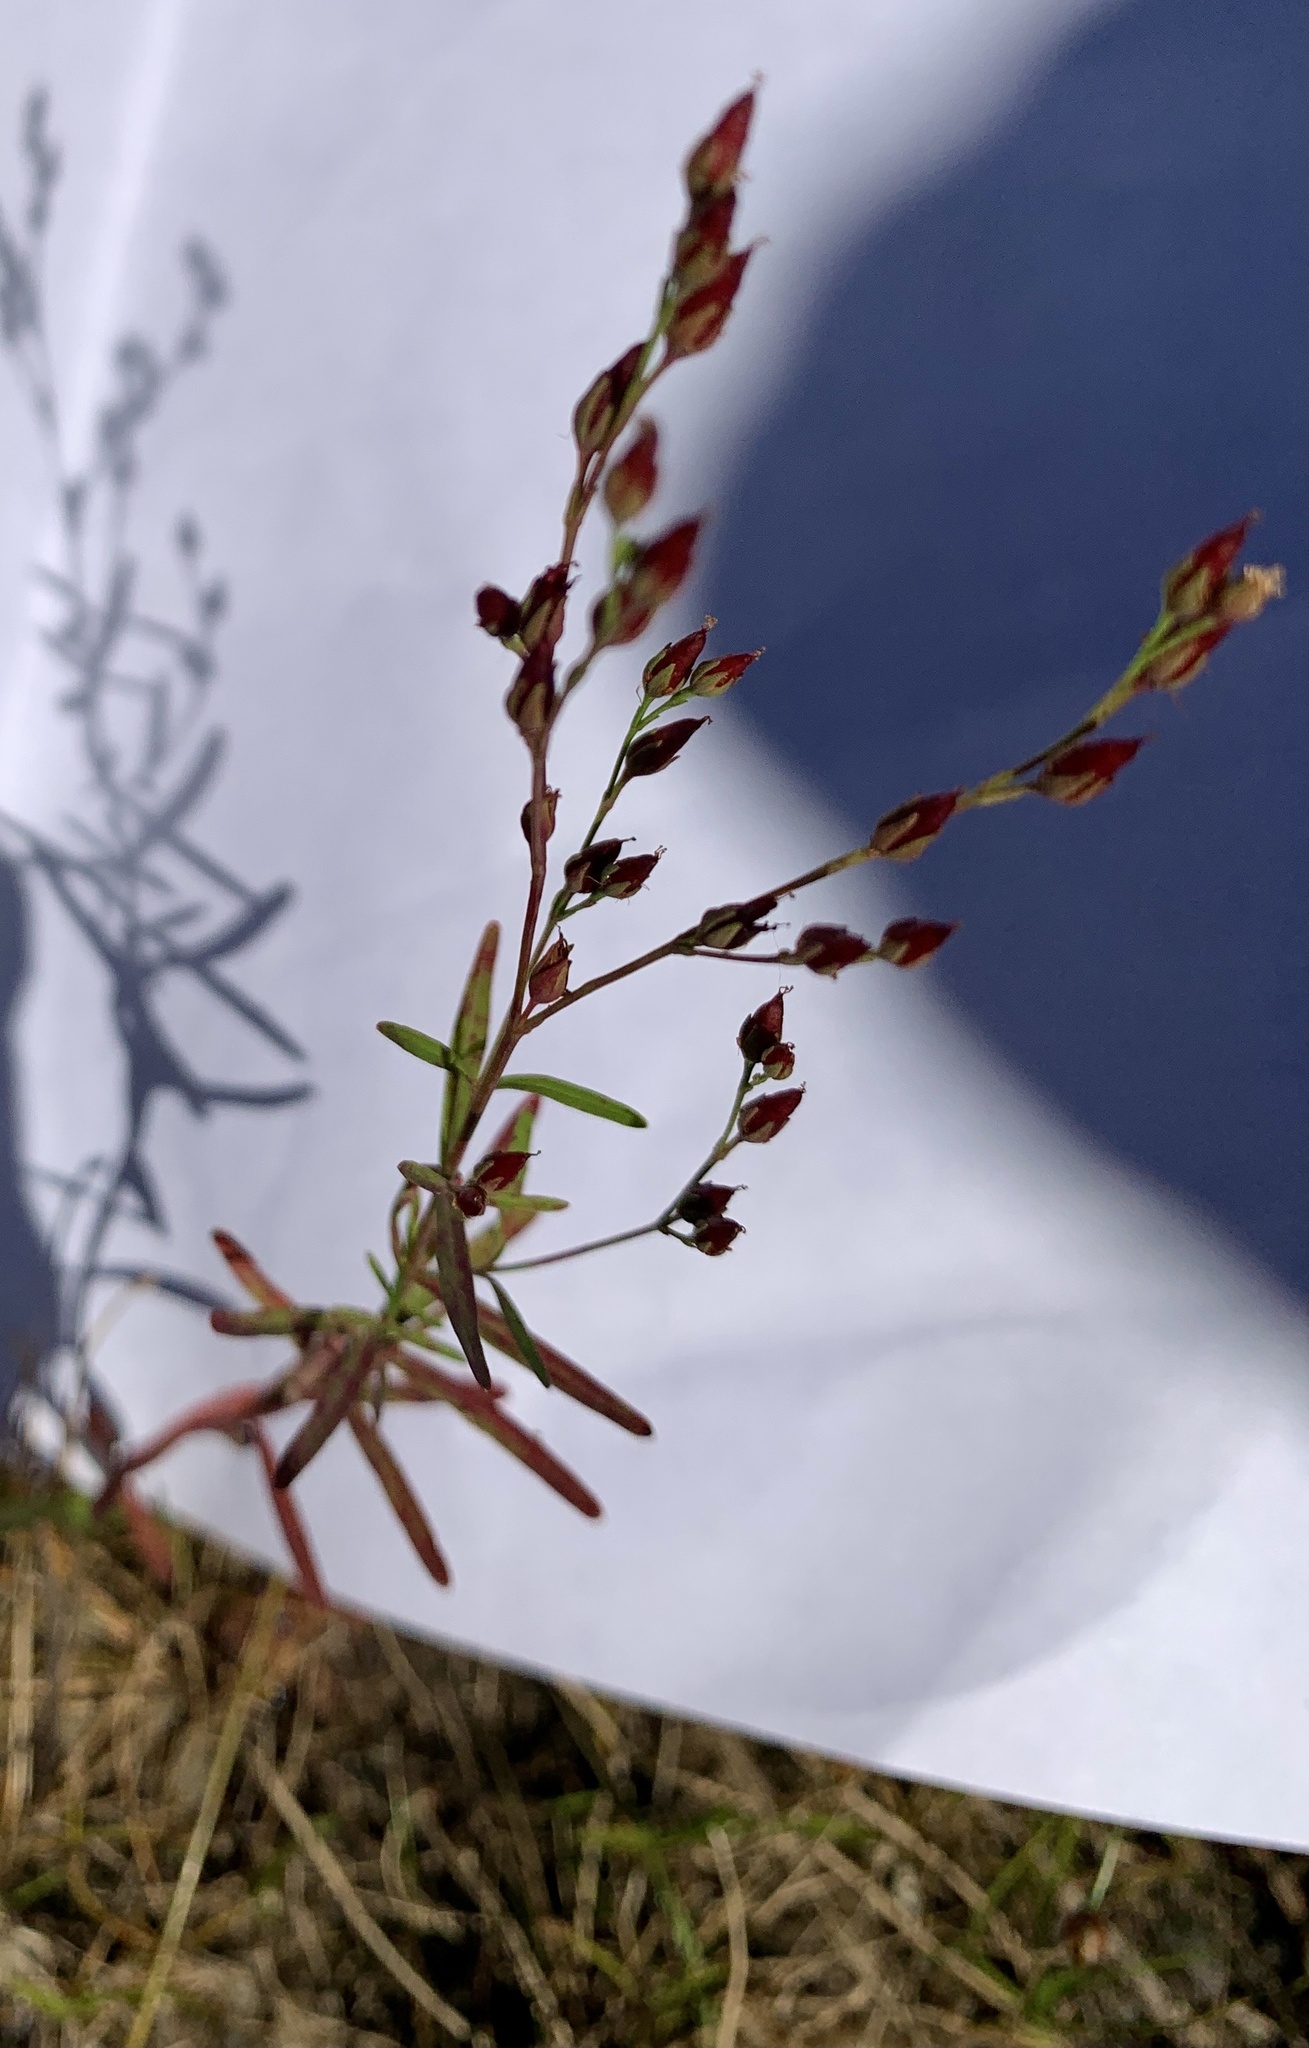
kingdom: Plantae
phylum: Tracheophyta
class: Magnoliopsida
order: Malpighiales
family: Hypericaceae
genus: Hypericum
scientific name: Hypericum canadense
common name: Irish st. john's-wort
